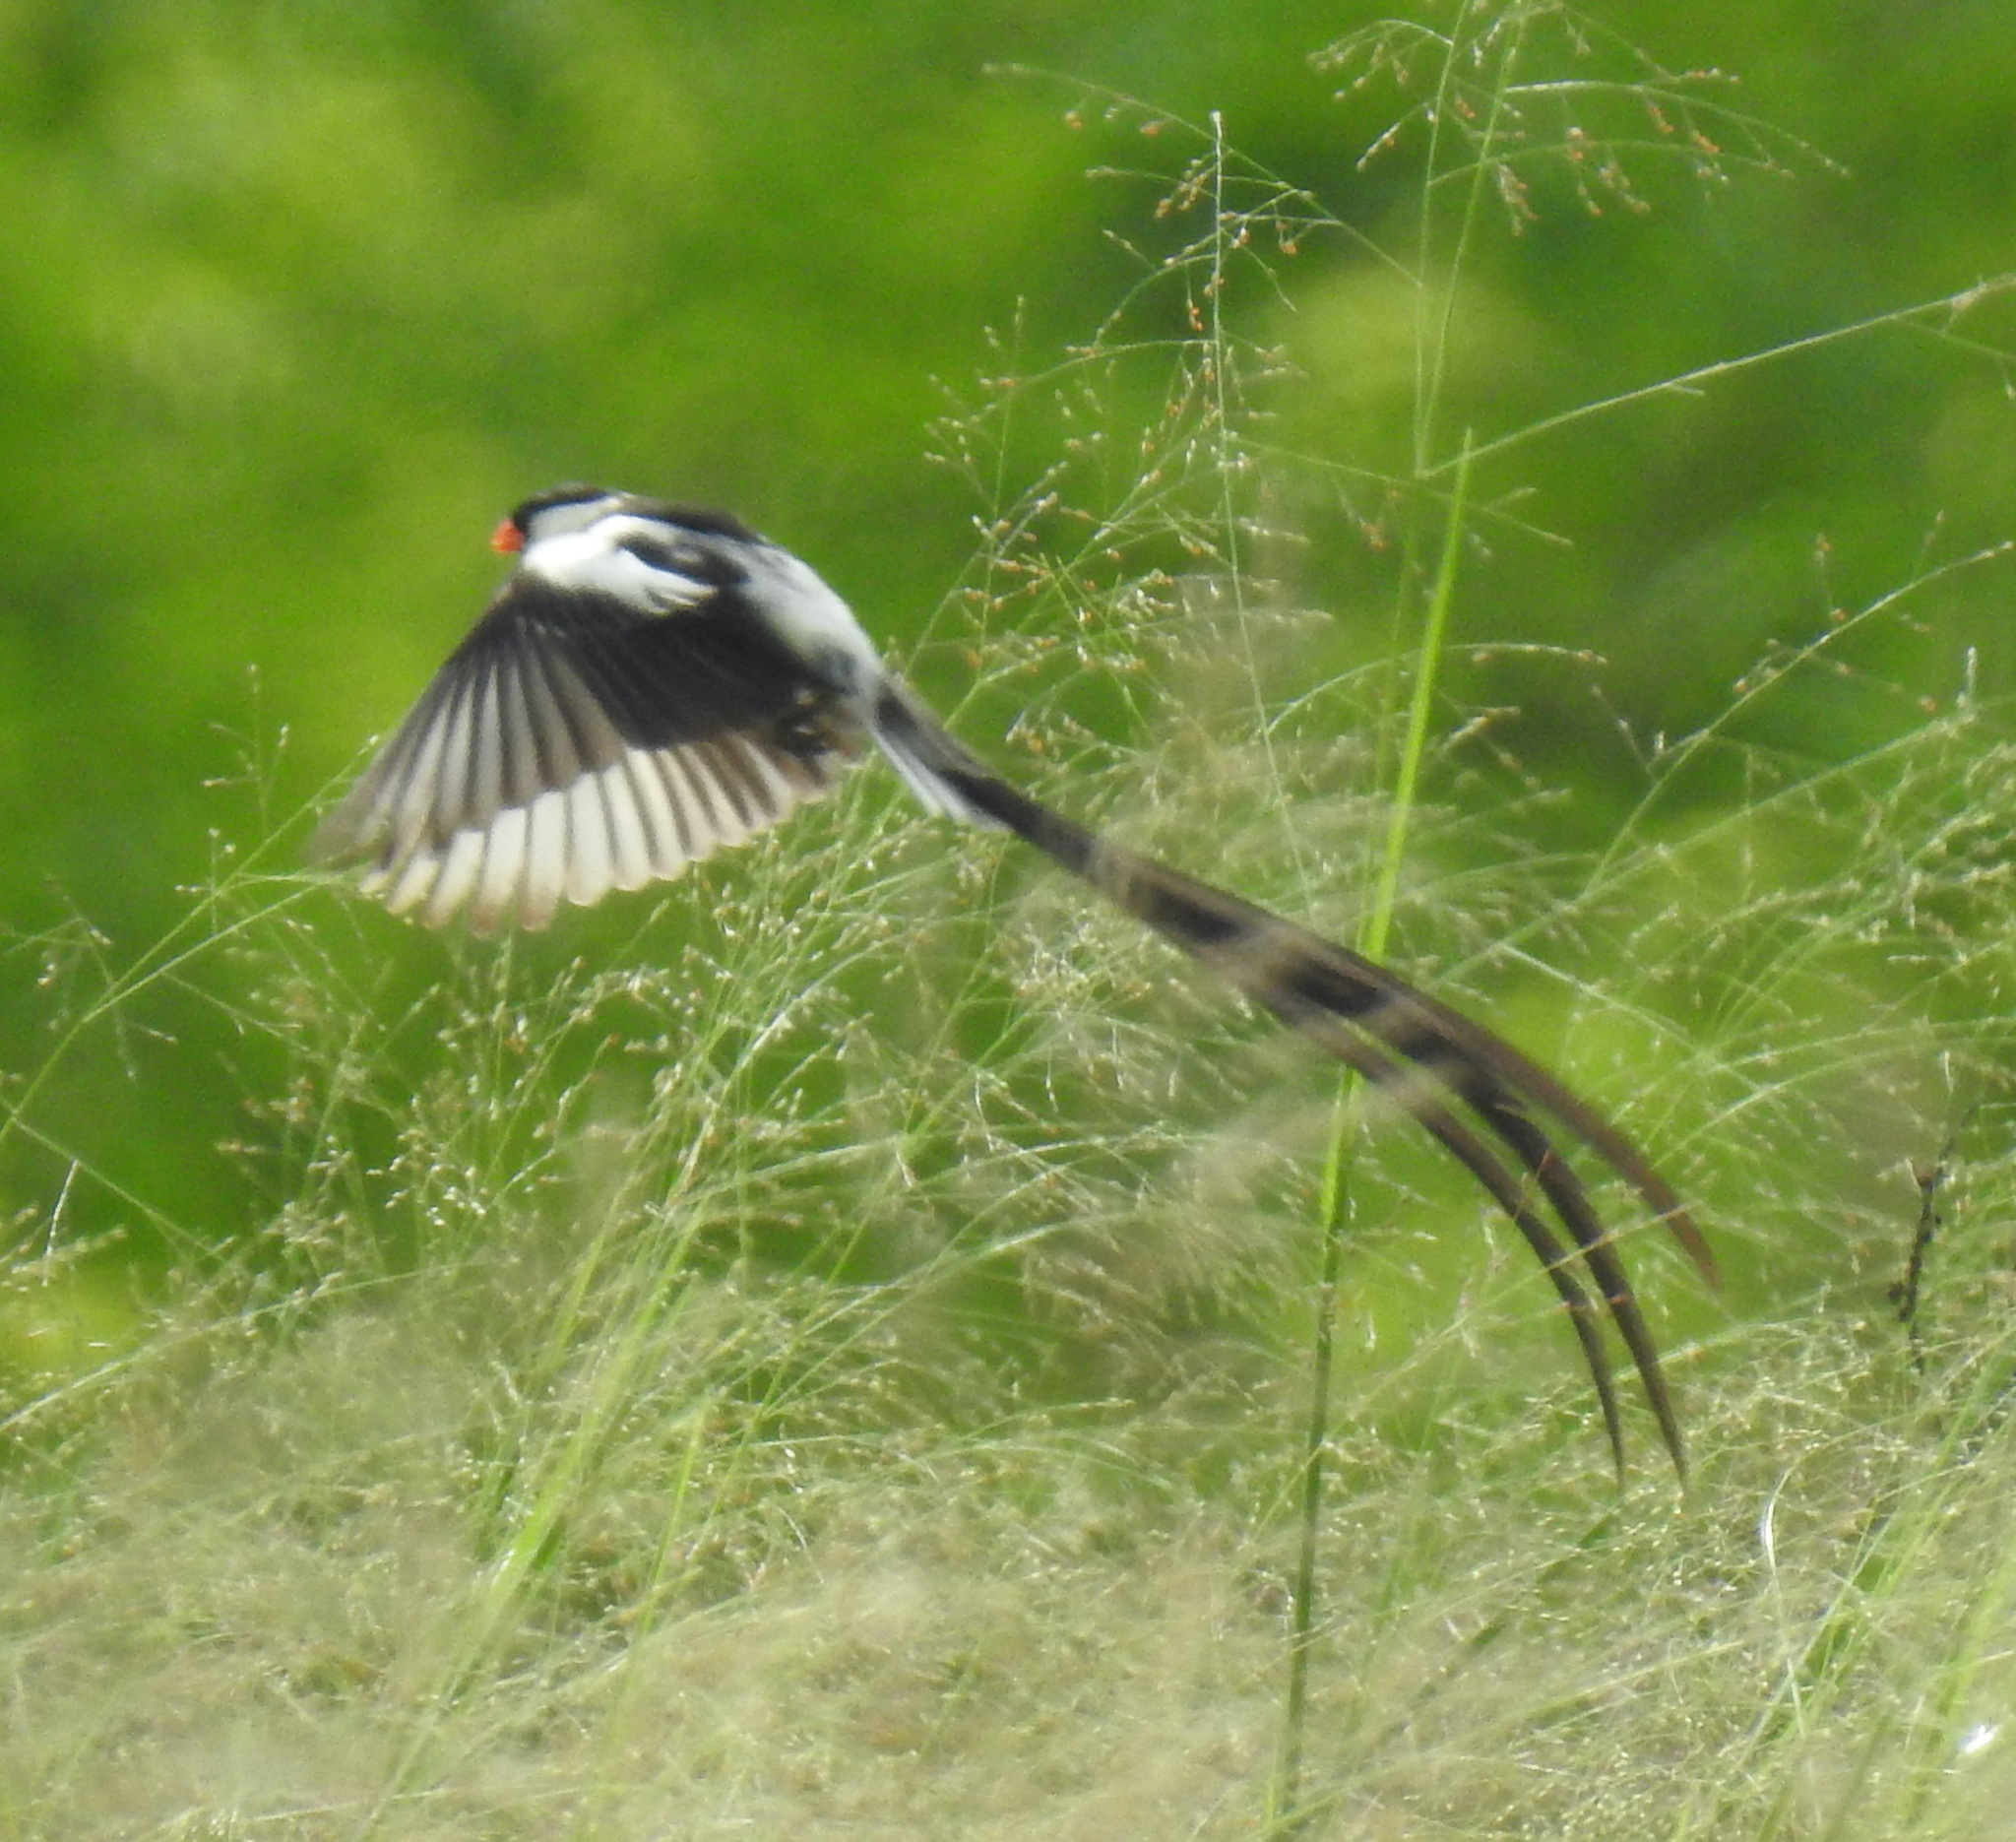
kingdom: Animalia
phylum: Chordata
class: Aves
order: Passeriformes
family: Viduidae
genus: Vidua
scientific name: Vidua macroura
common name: Pin-tailed whydah
